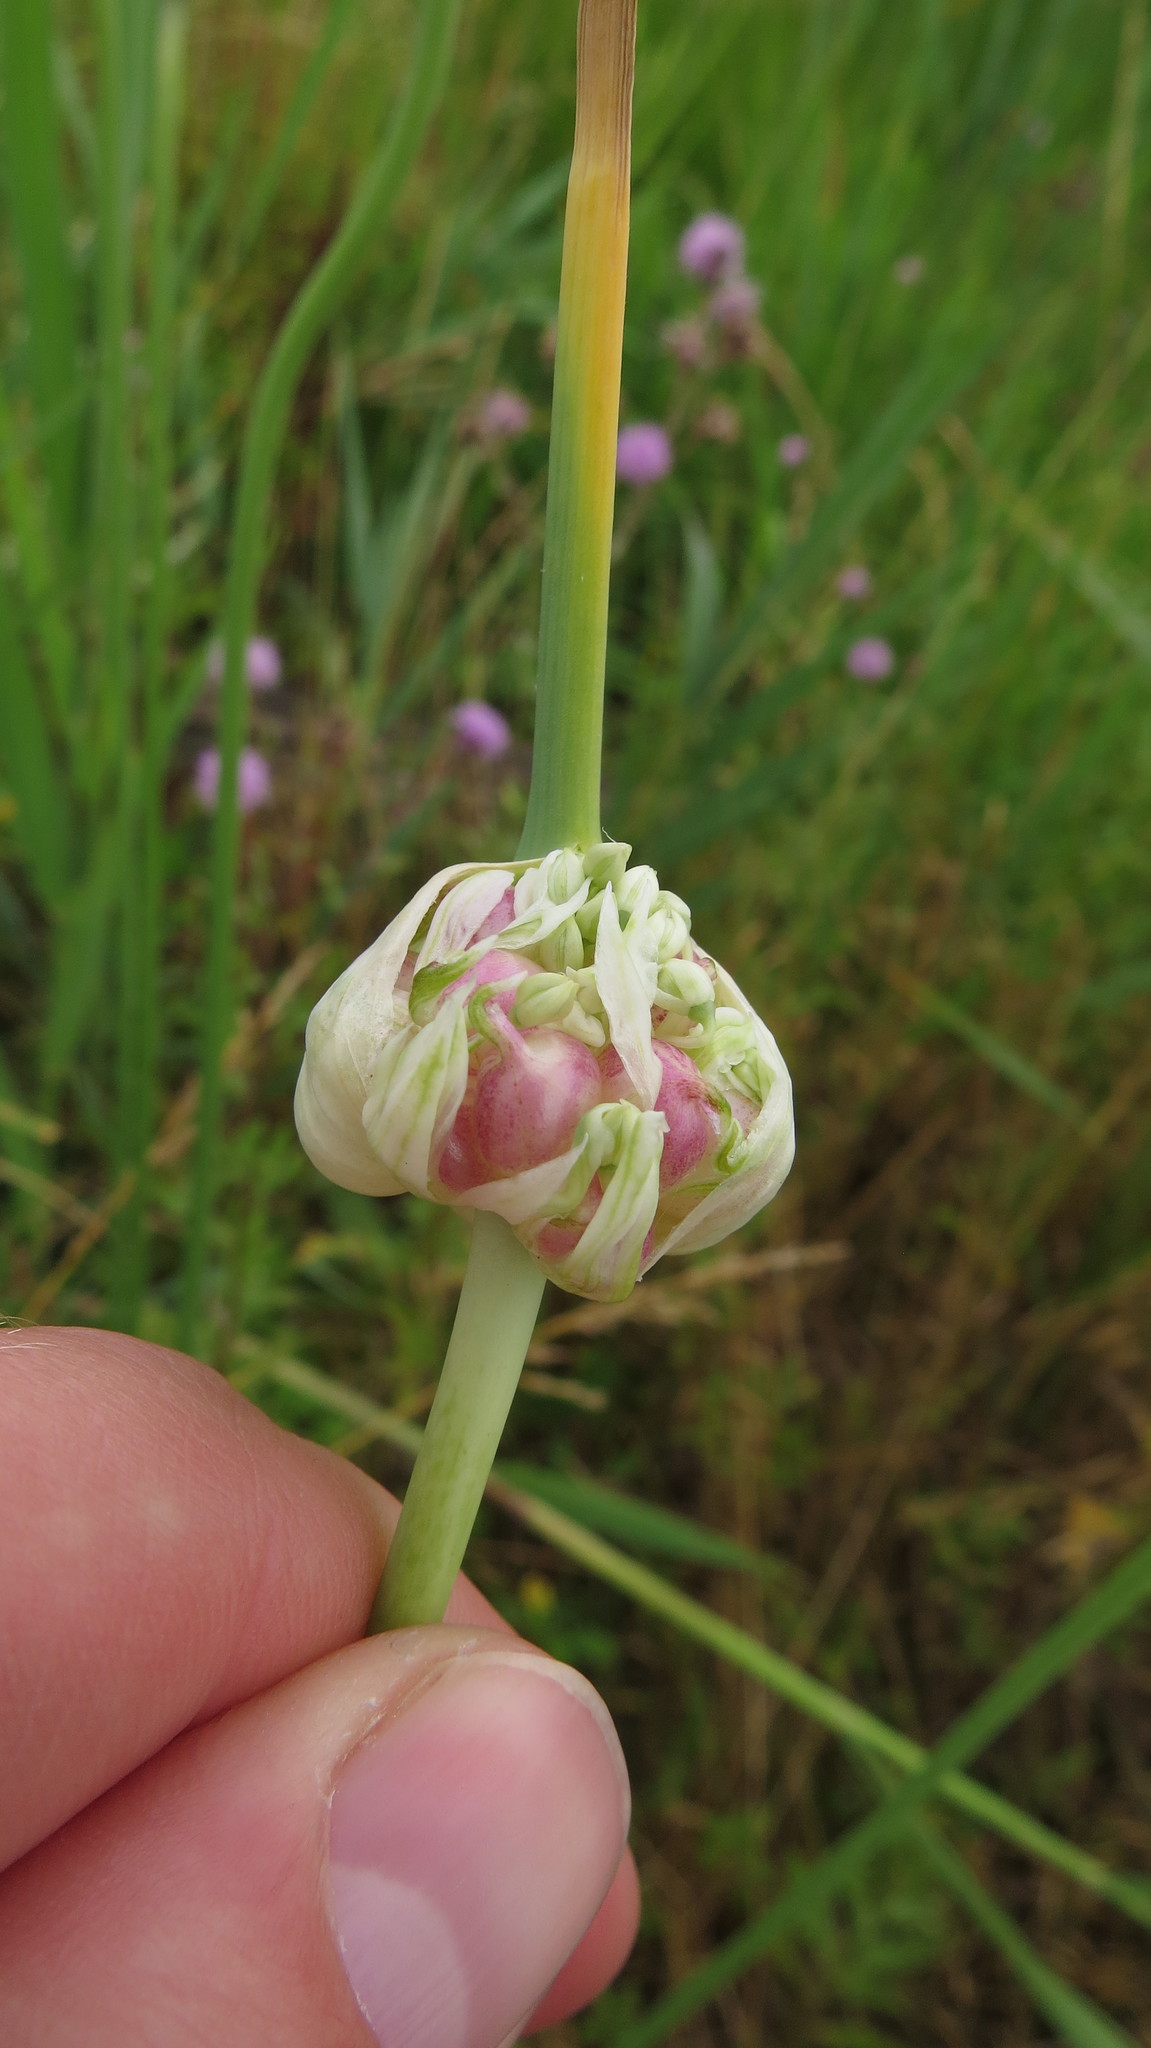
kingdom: Plantae
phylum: Tracheophyta
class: Liliopsida
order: Asparagales
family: Amaryllidaceae
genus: Allium
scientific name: Allium sativum
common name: Garlic
